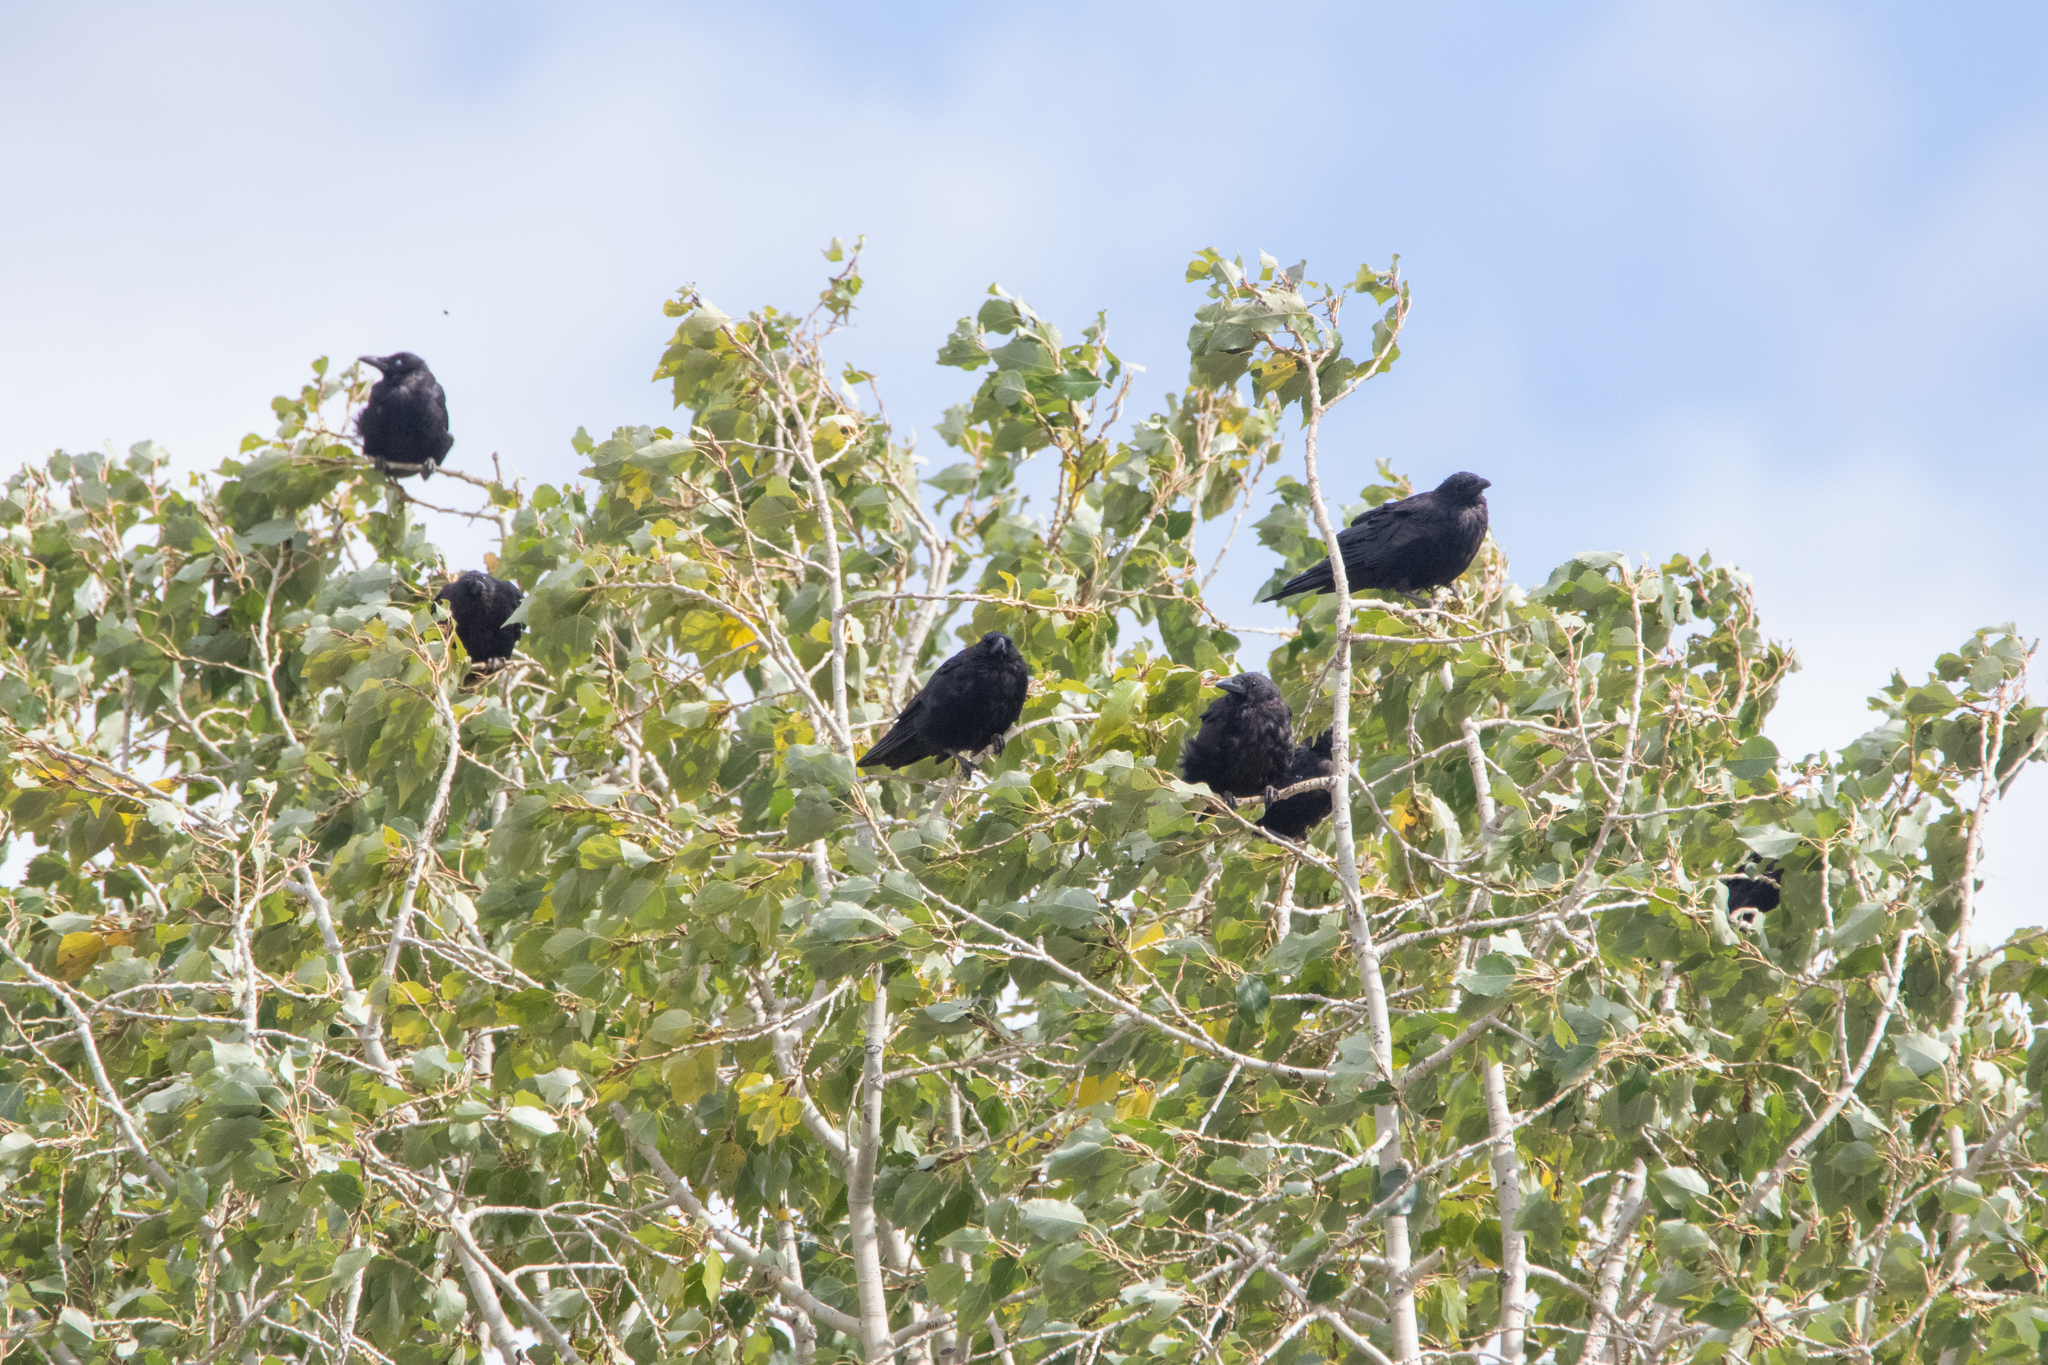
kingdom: Animalia
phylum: Chordata
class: Aves
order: Passeriformes
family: Corvidae
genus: Corvus
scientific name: Corvus corone
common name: Carrion crow
